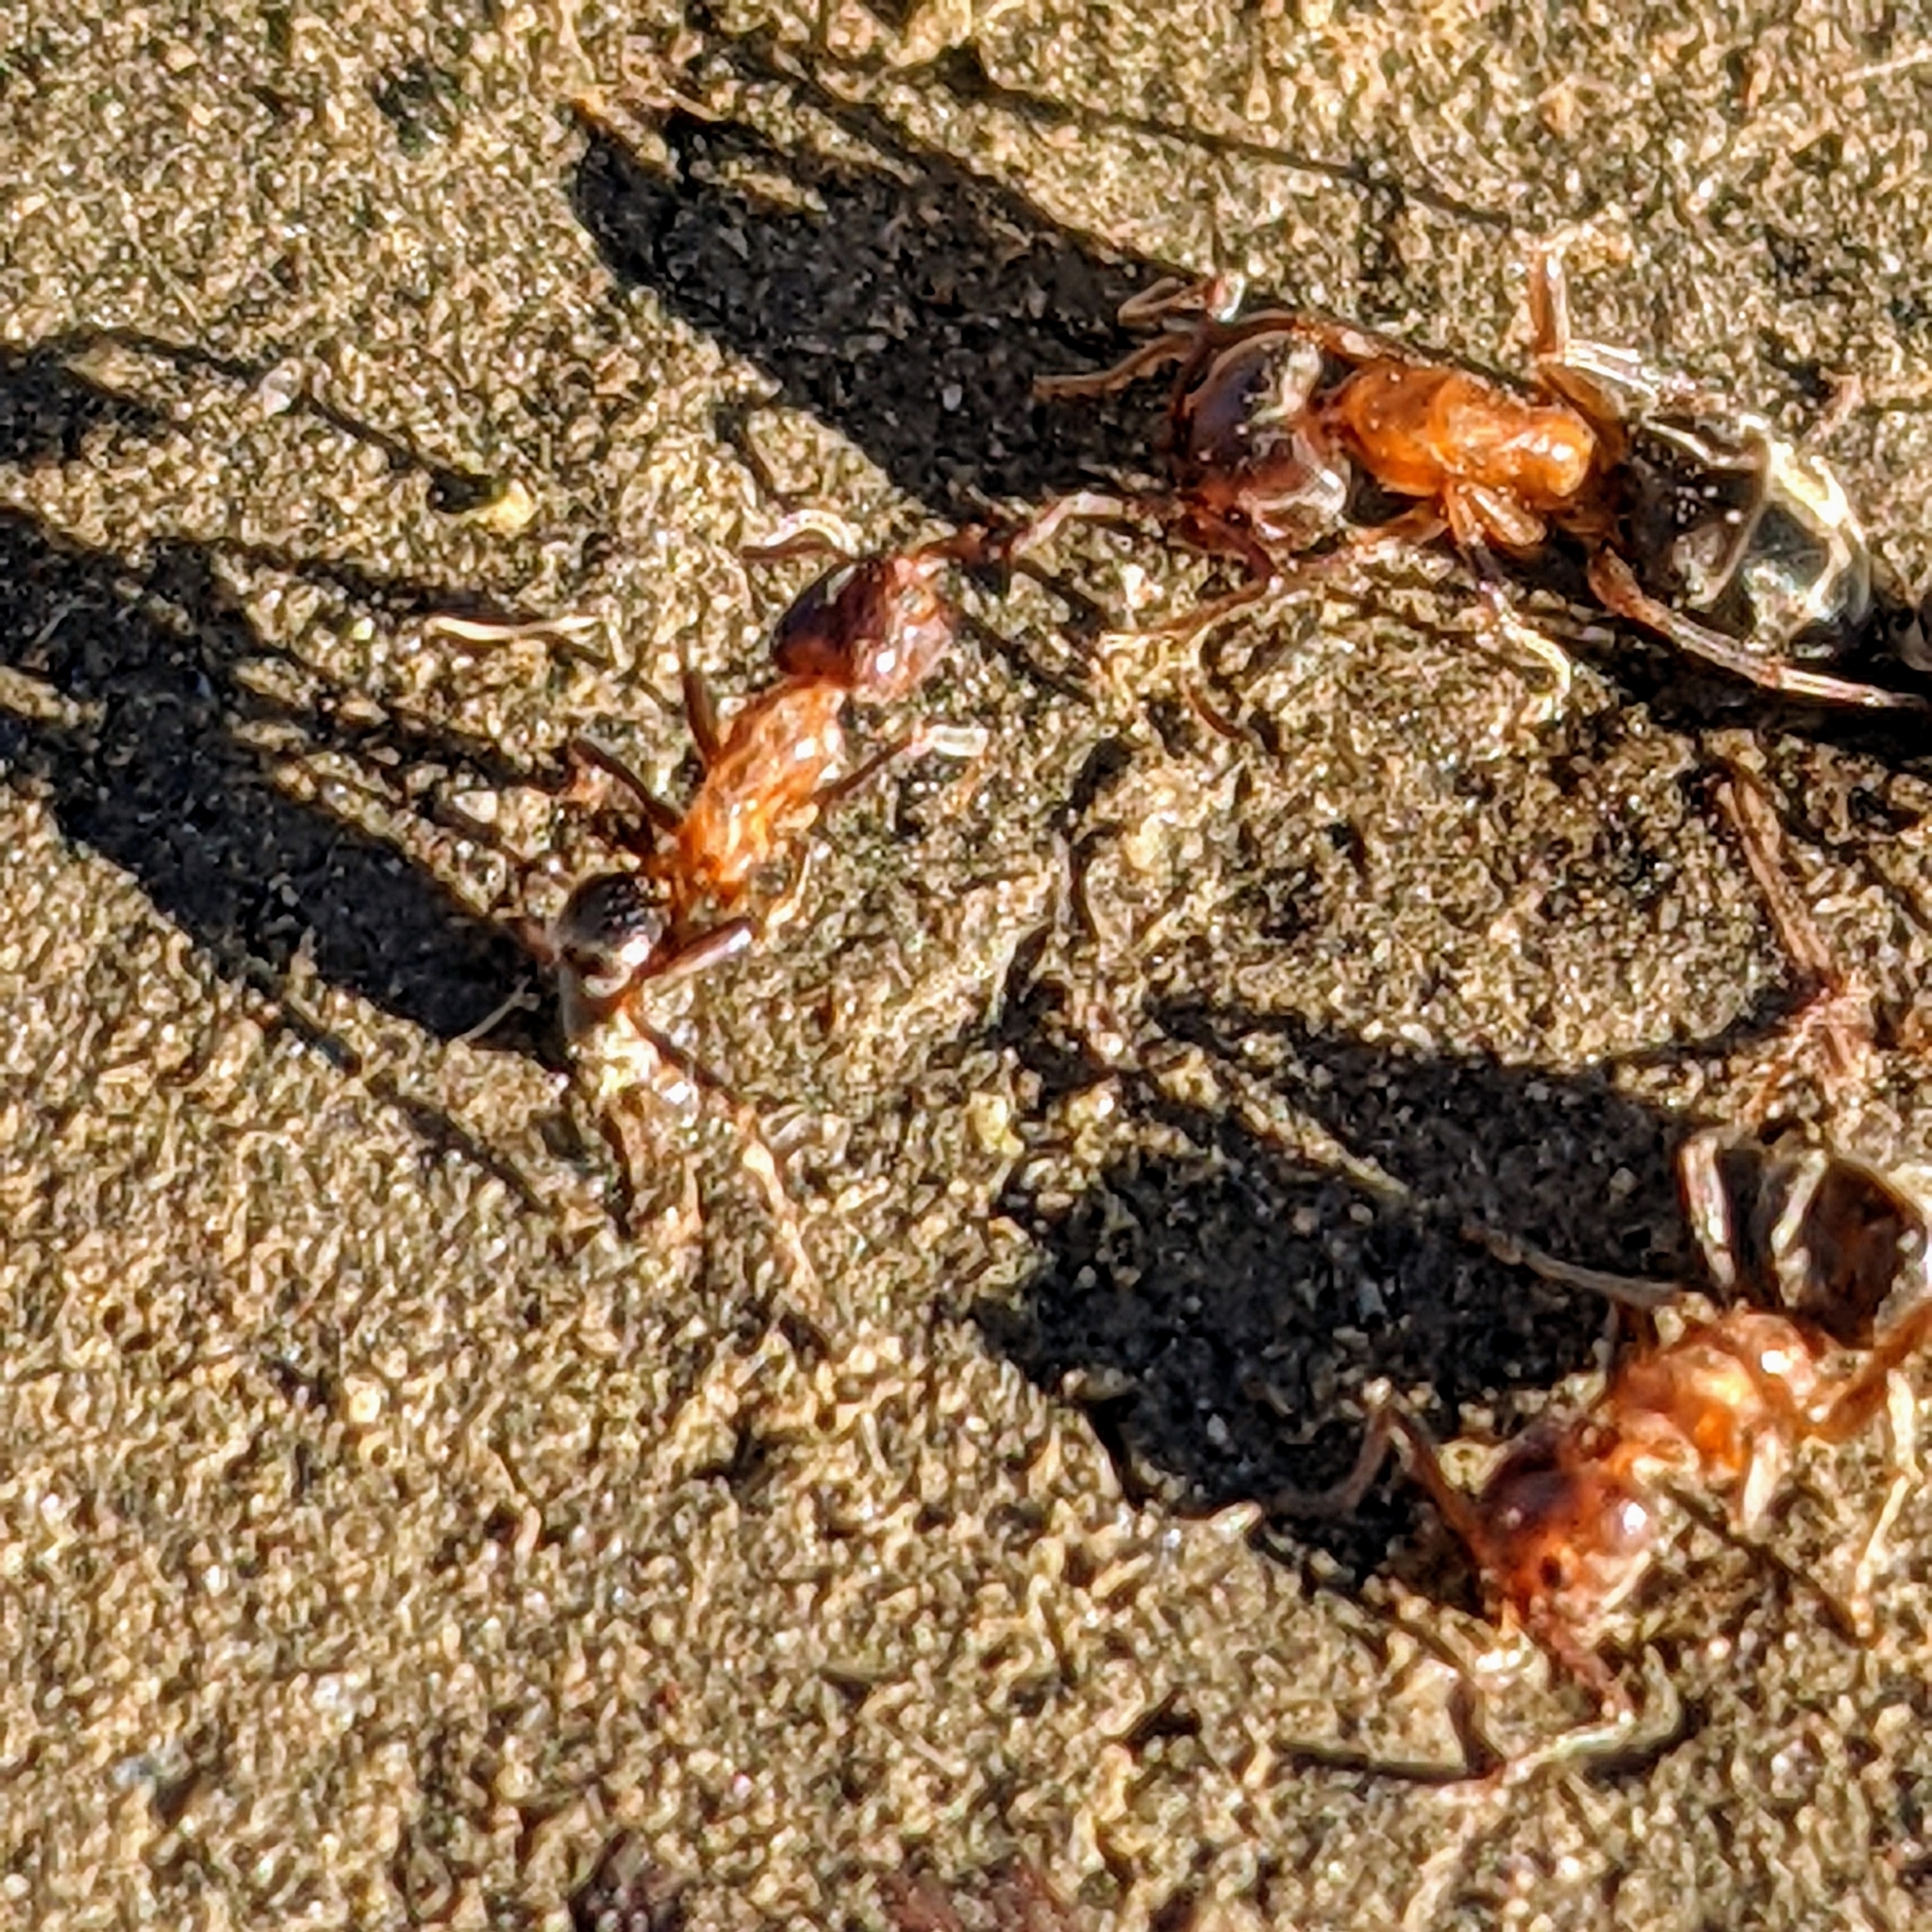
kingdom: Animalia
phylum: Arthropoda
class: Insecta
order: Hymenoptera
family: Formicidae
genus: Liometopum
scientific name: Liometopum occidentale
